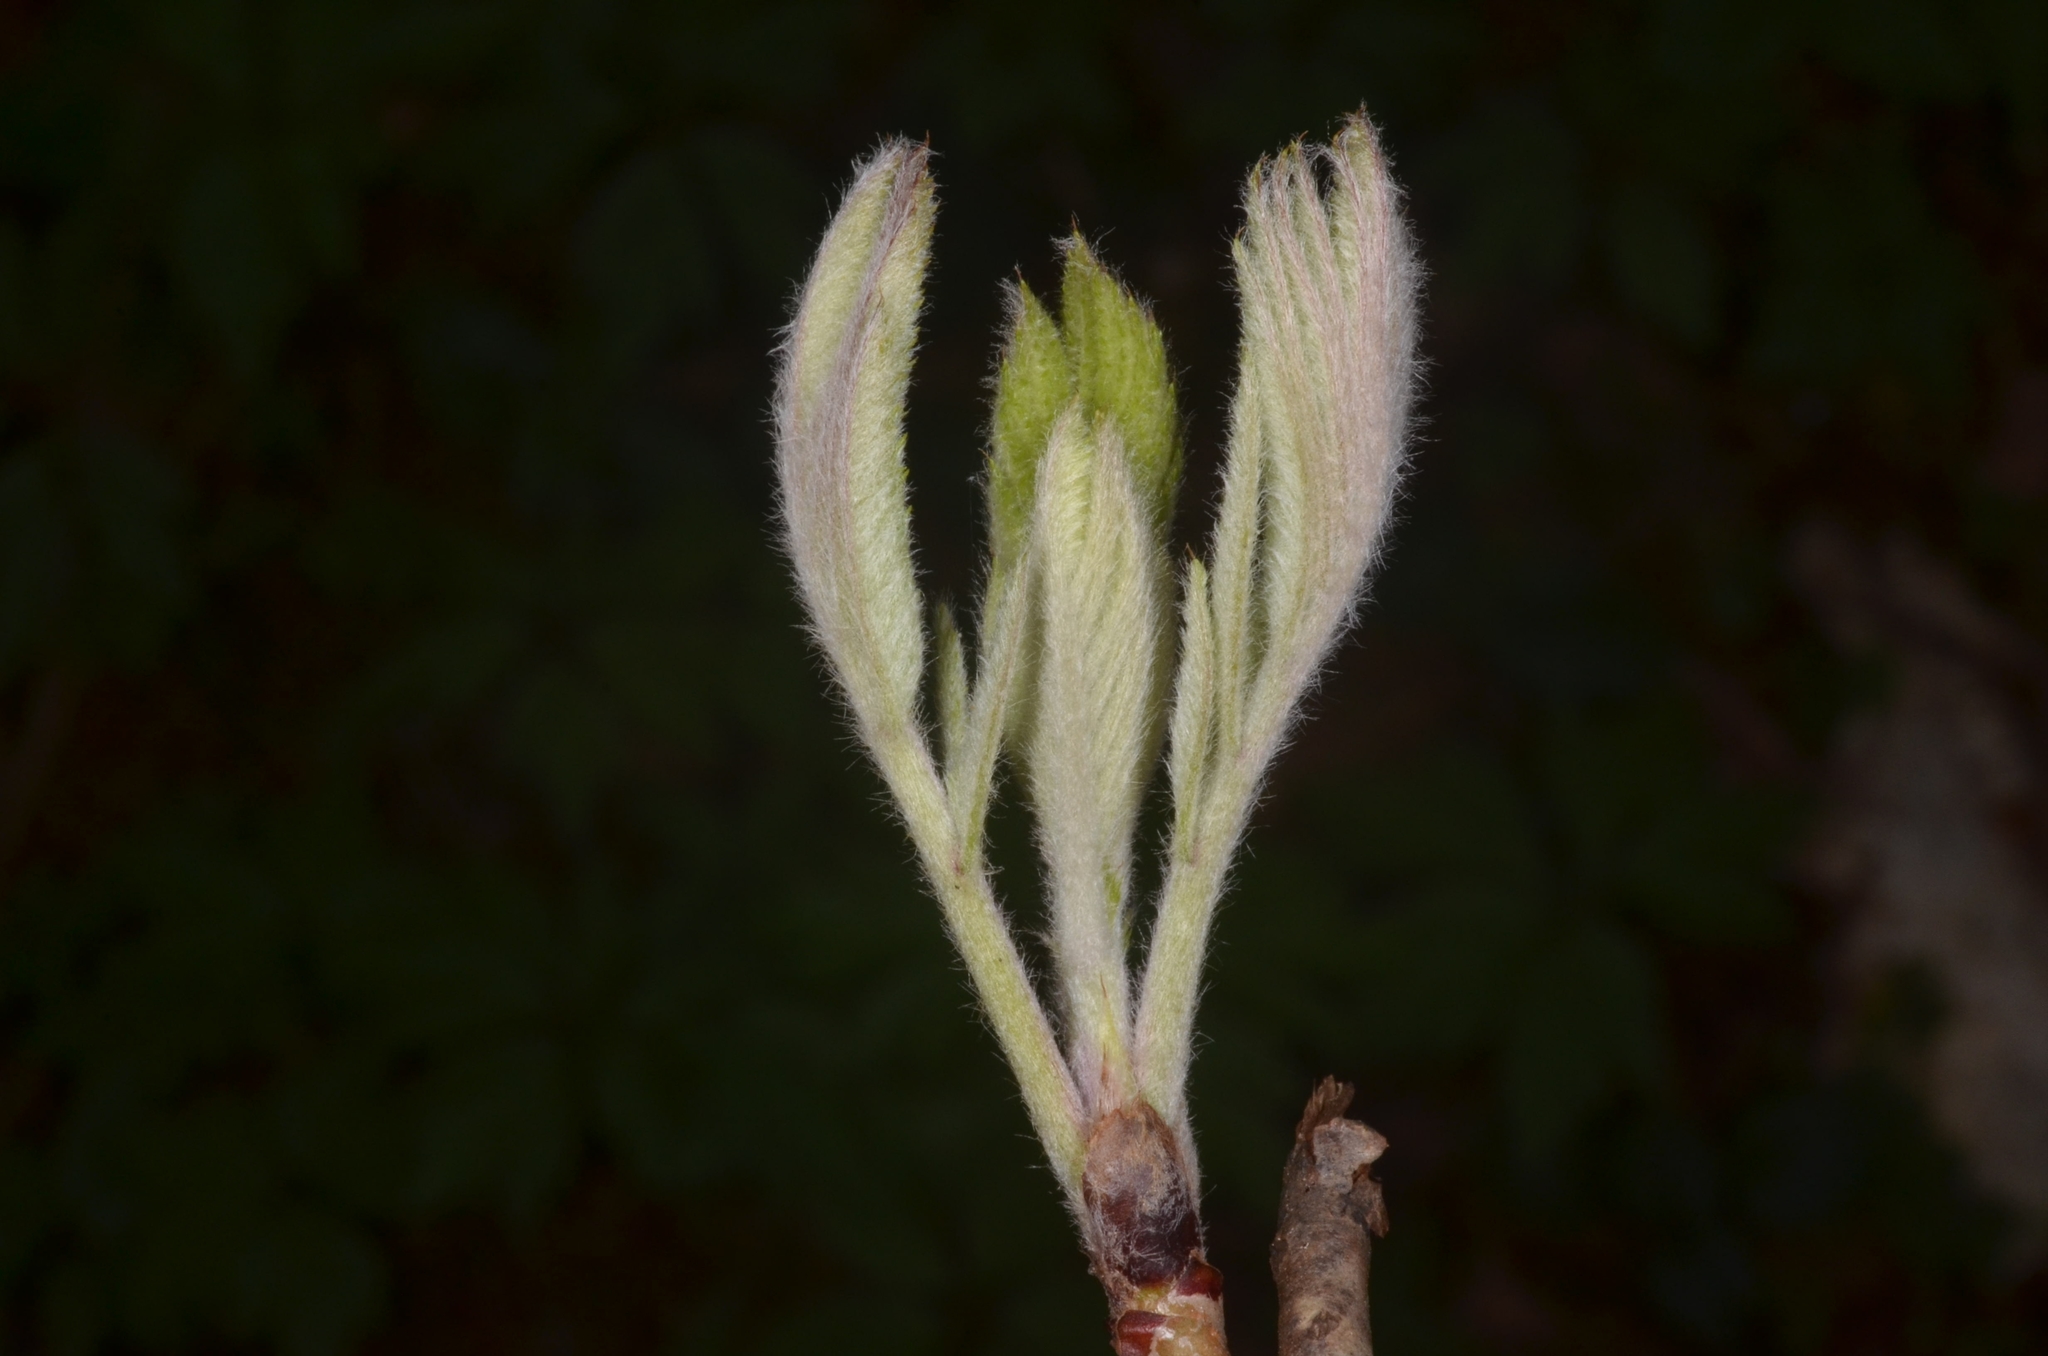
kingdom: Plantae
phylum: Tracheophyta
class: Magnoliopsida
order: Rosales
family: Rosaceae
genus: Sorbus
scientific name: Sorbus aucuparia
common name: Rowan
